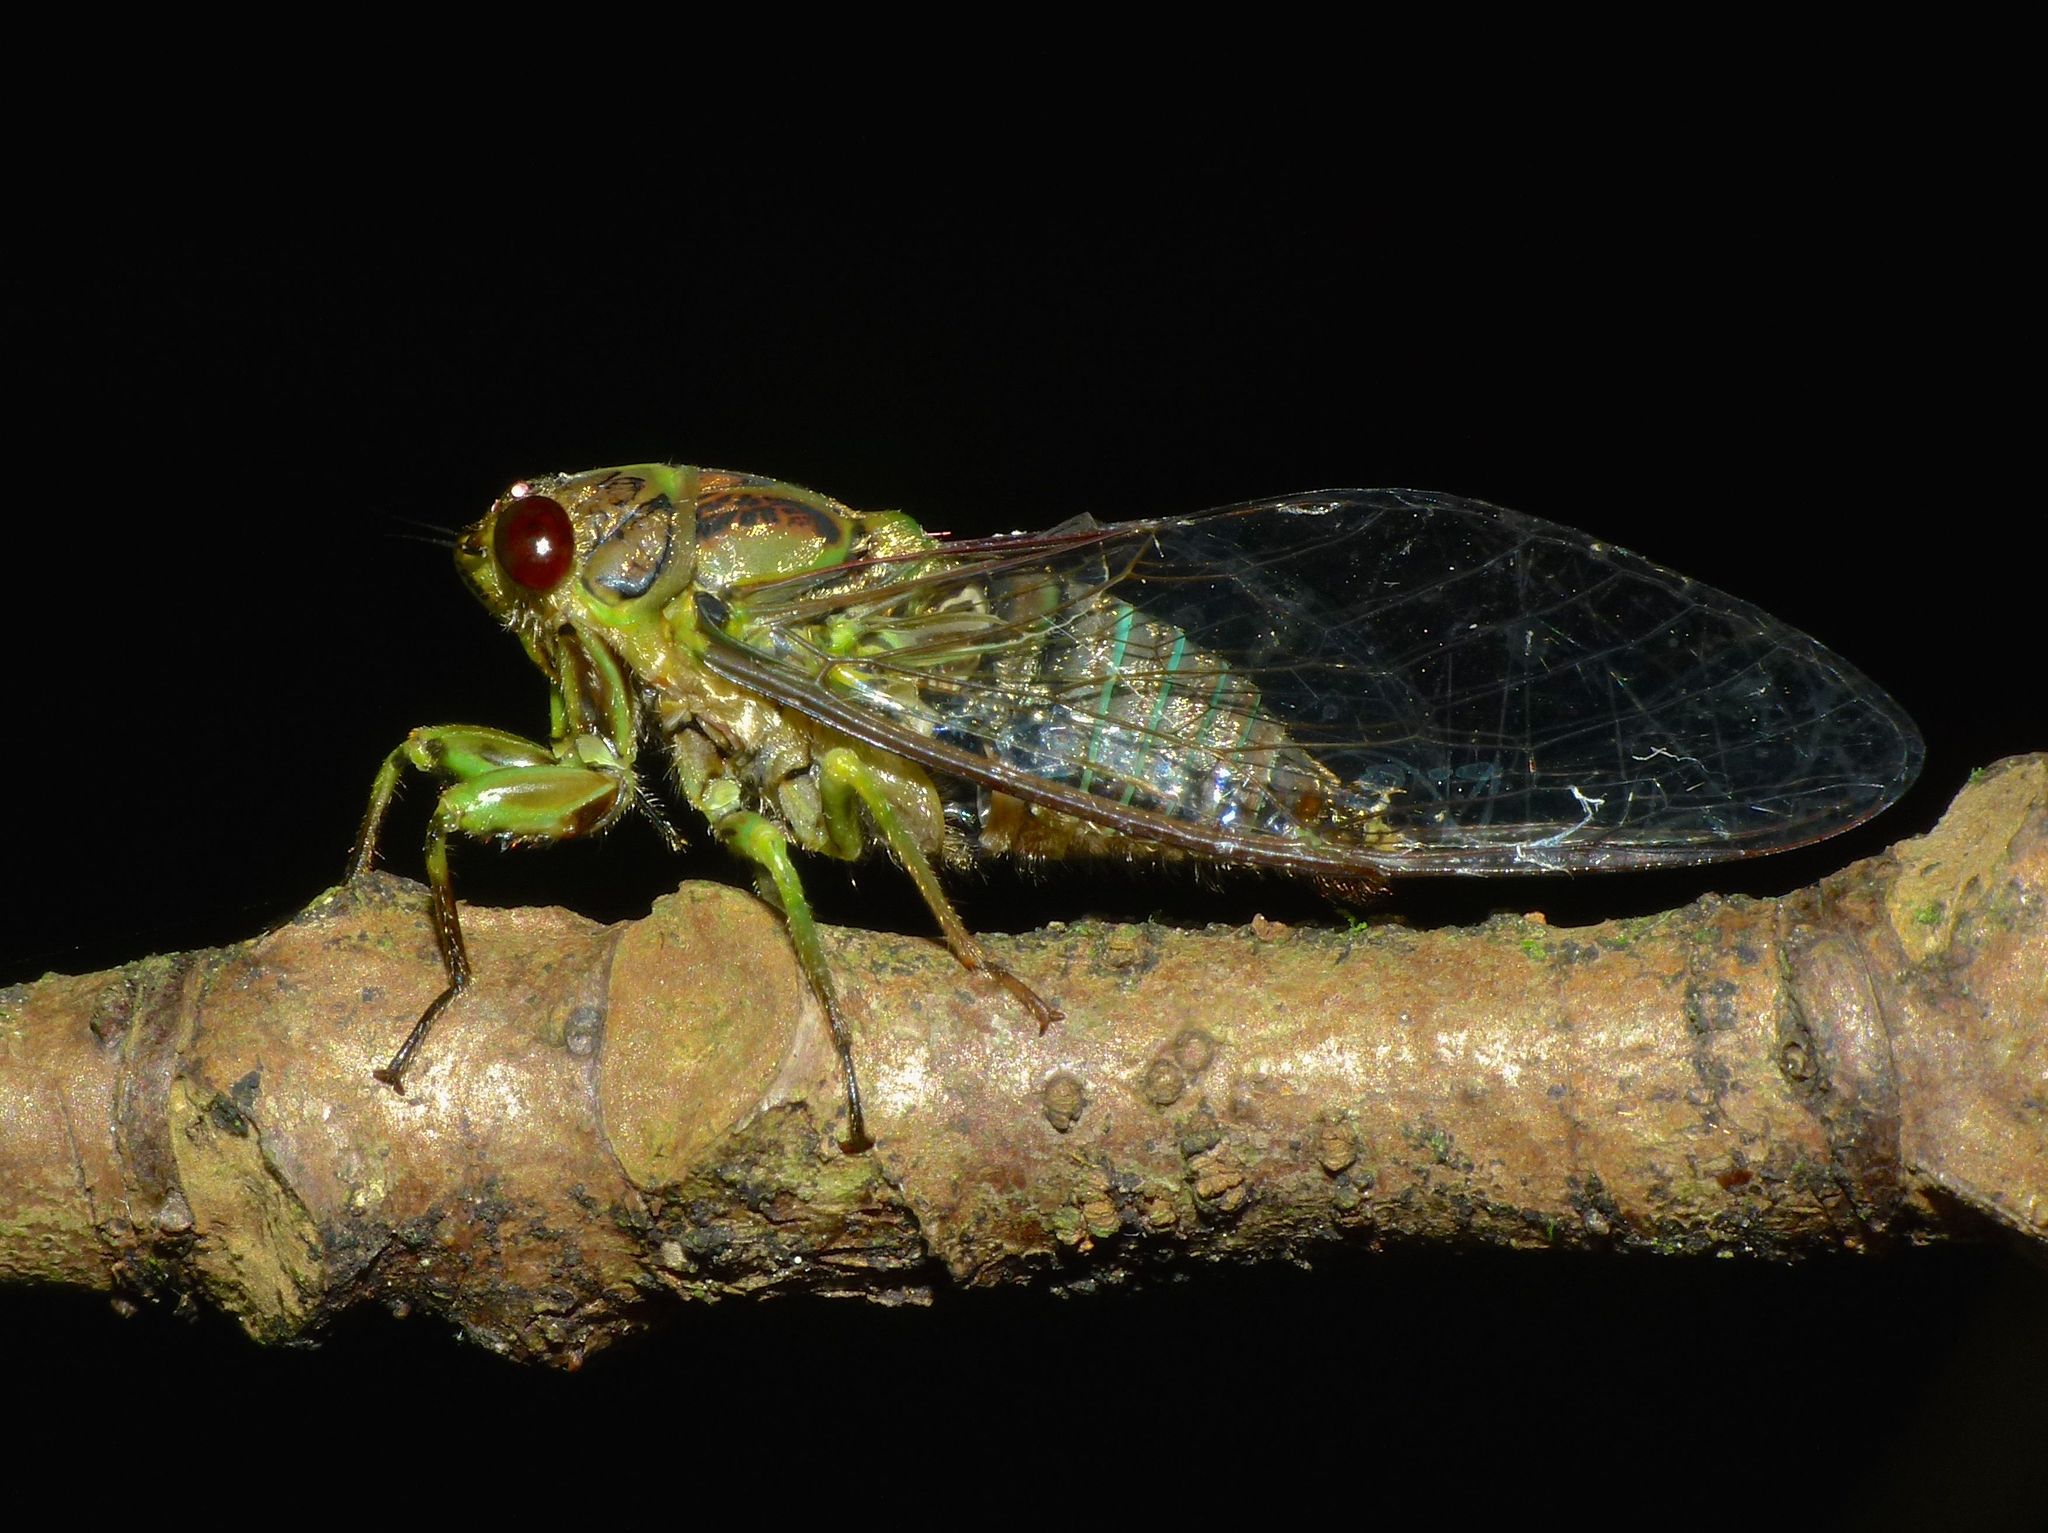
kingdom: Animalia
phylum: Arthropoda
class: Insecta
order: Hemiptera
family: Cicadidae
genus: Kikihia
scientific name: Kikihia scutellaris
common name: Lesser bronze cicada
